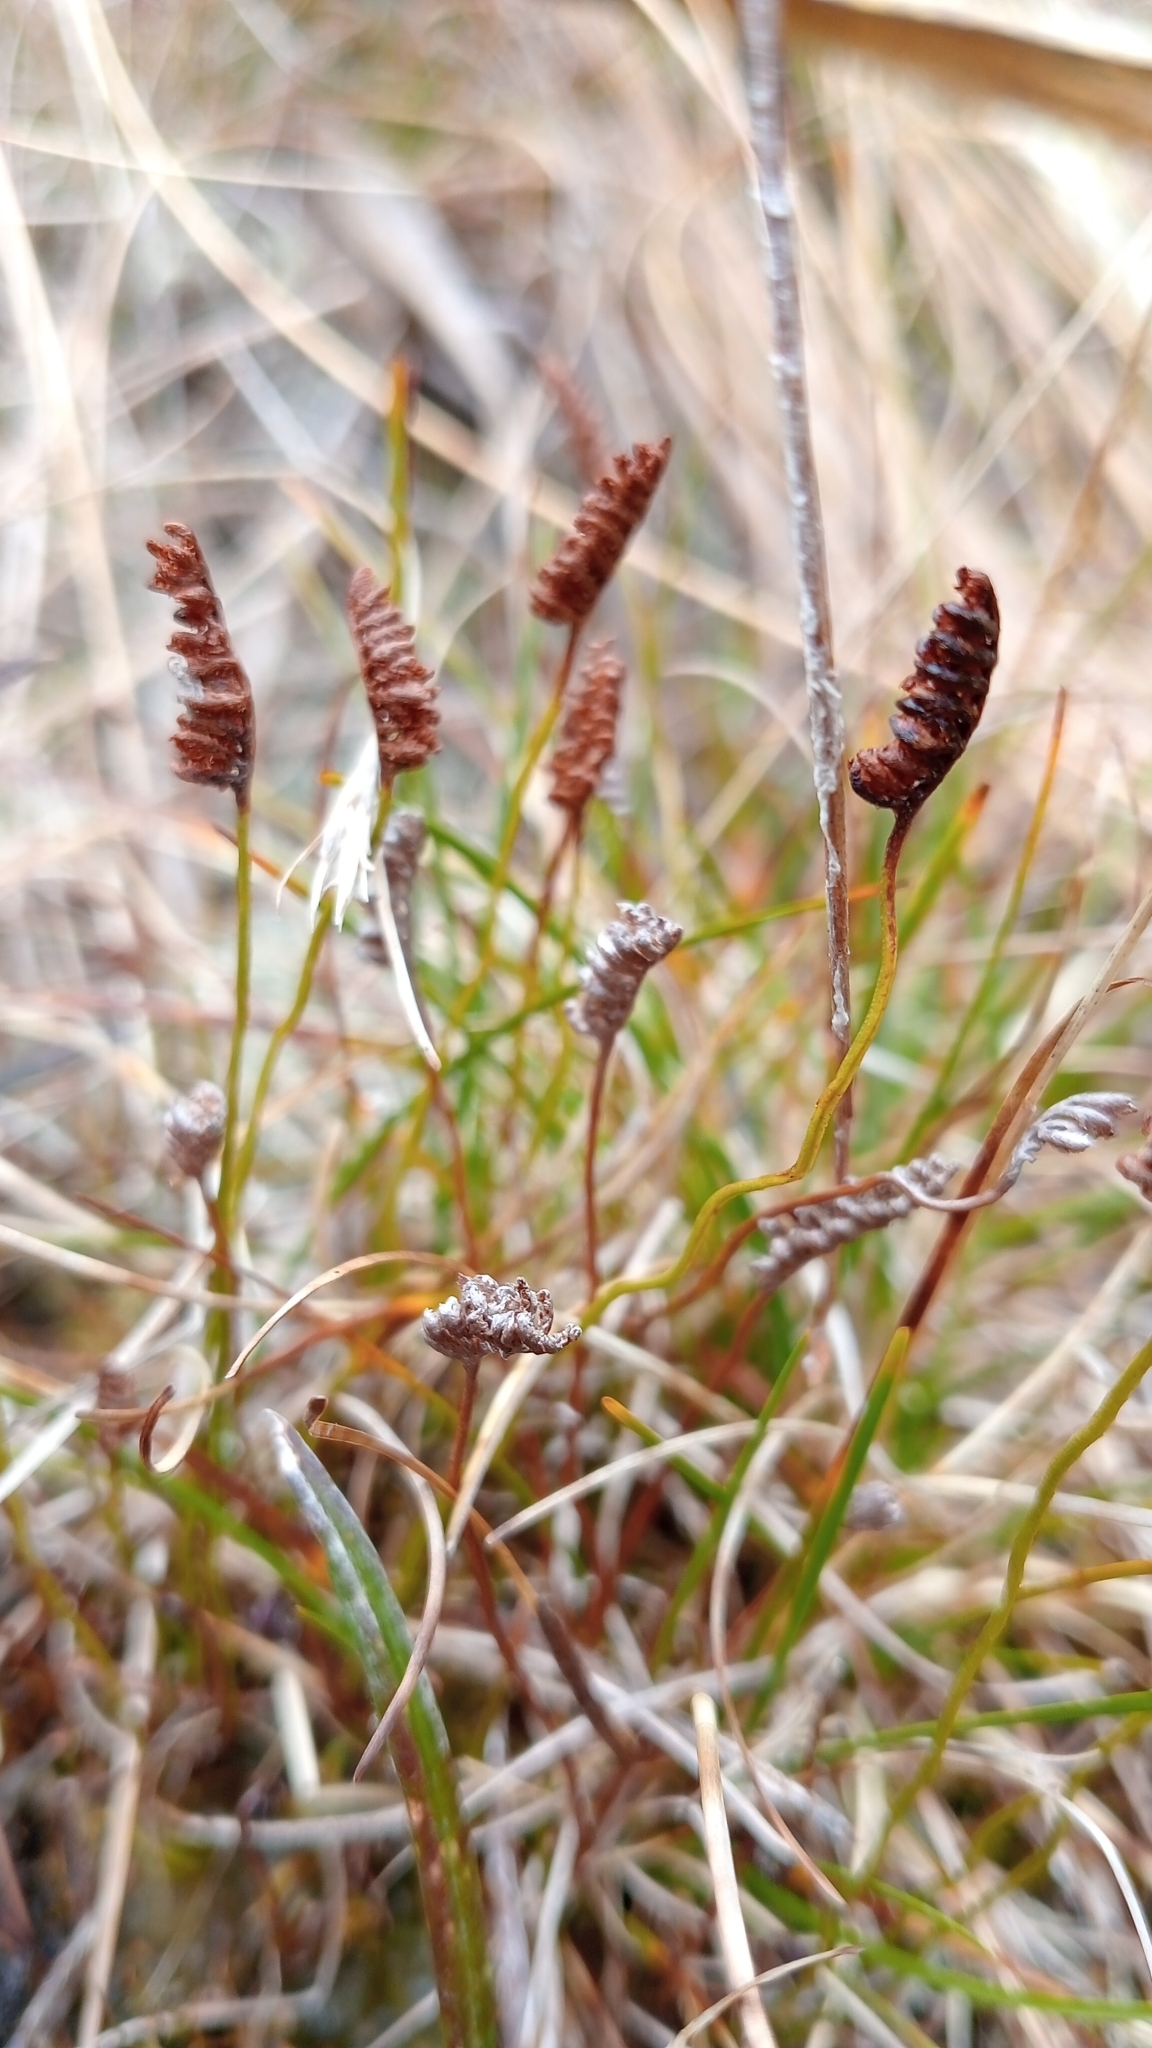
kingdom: Plantae
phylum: Tracheophyta
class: Polypodiopsida
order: Schizaeales
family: Schizaeaceae
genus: Microschizaea
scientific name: Microschizaea australis
